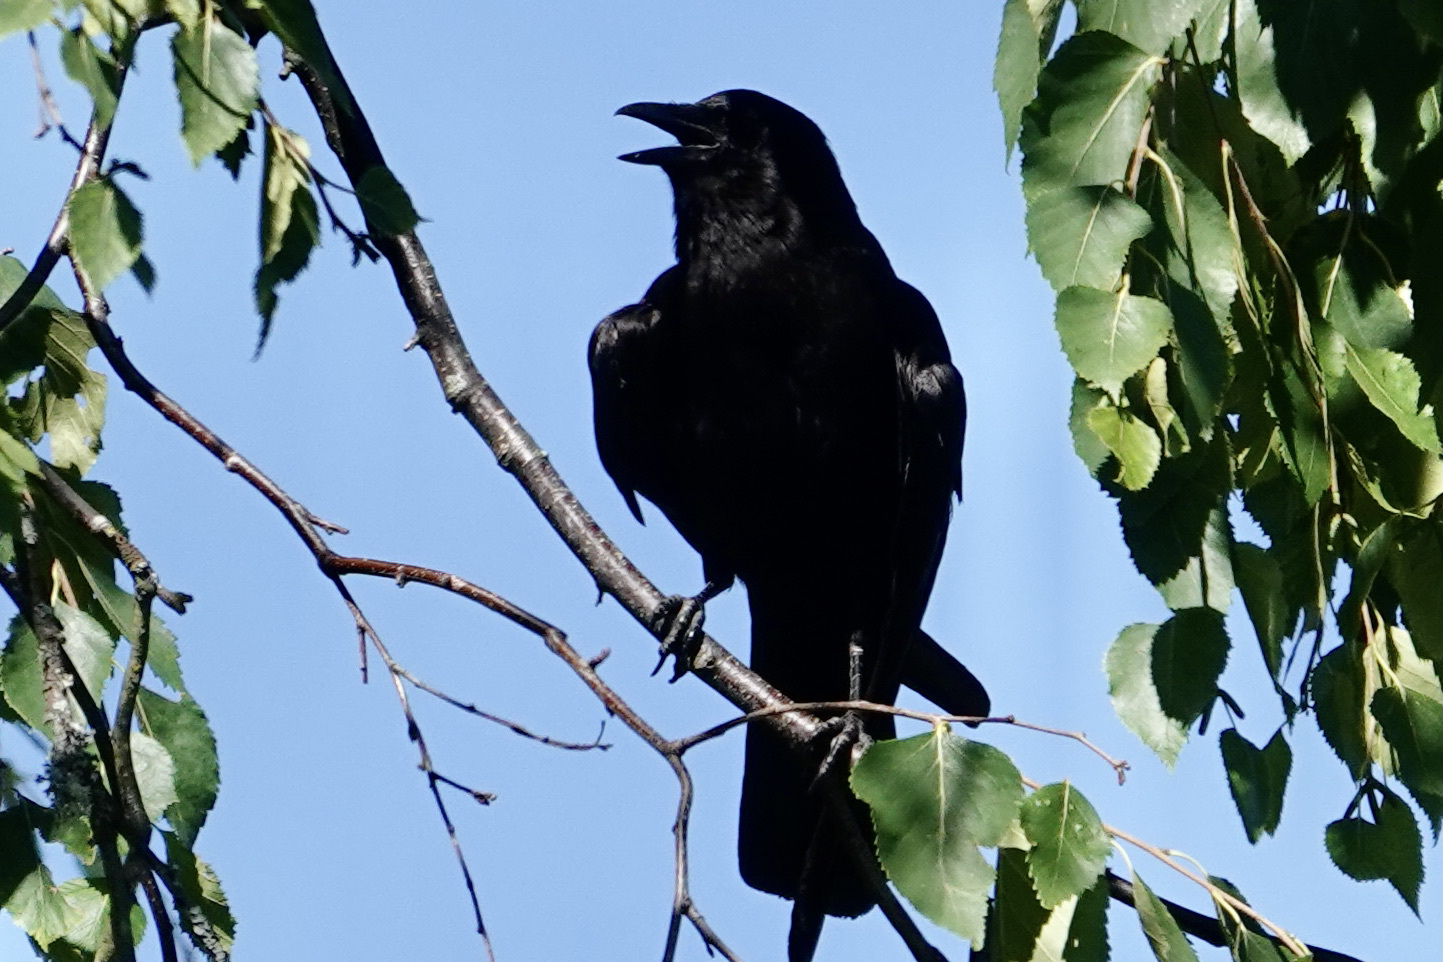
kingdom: Animalia
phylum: Chordata
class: Aves
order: Passeriformes
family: Corvidae
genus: Corvus
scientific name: Corvus brachyrhynchos
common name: American crow
